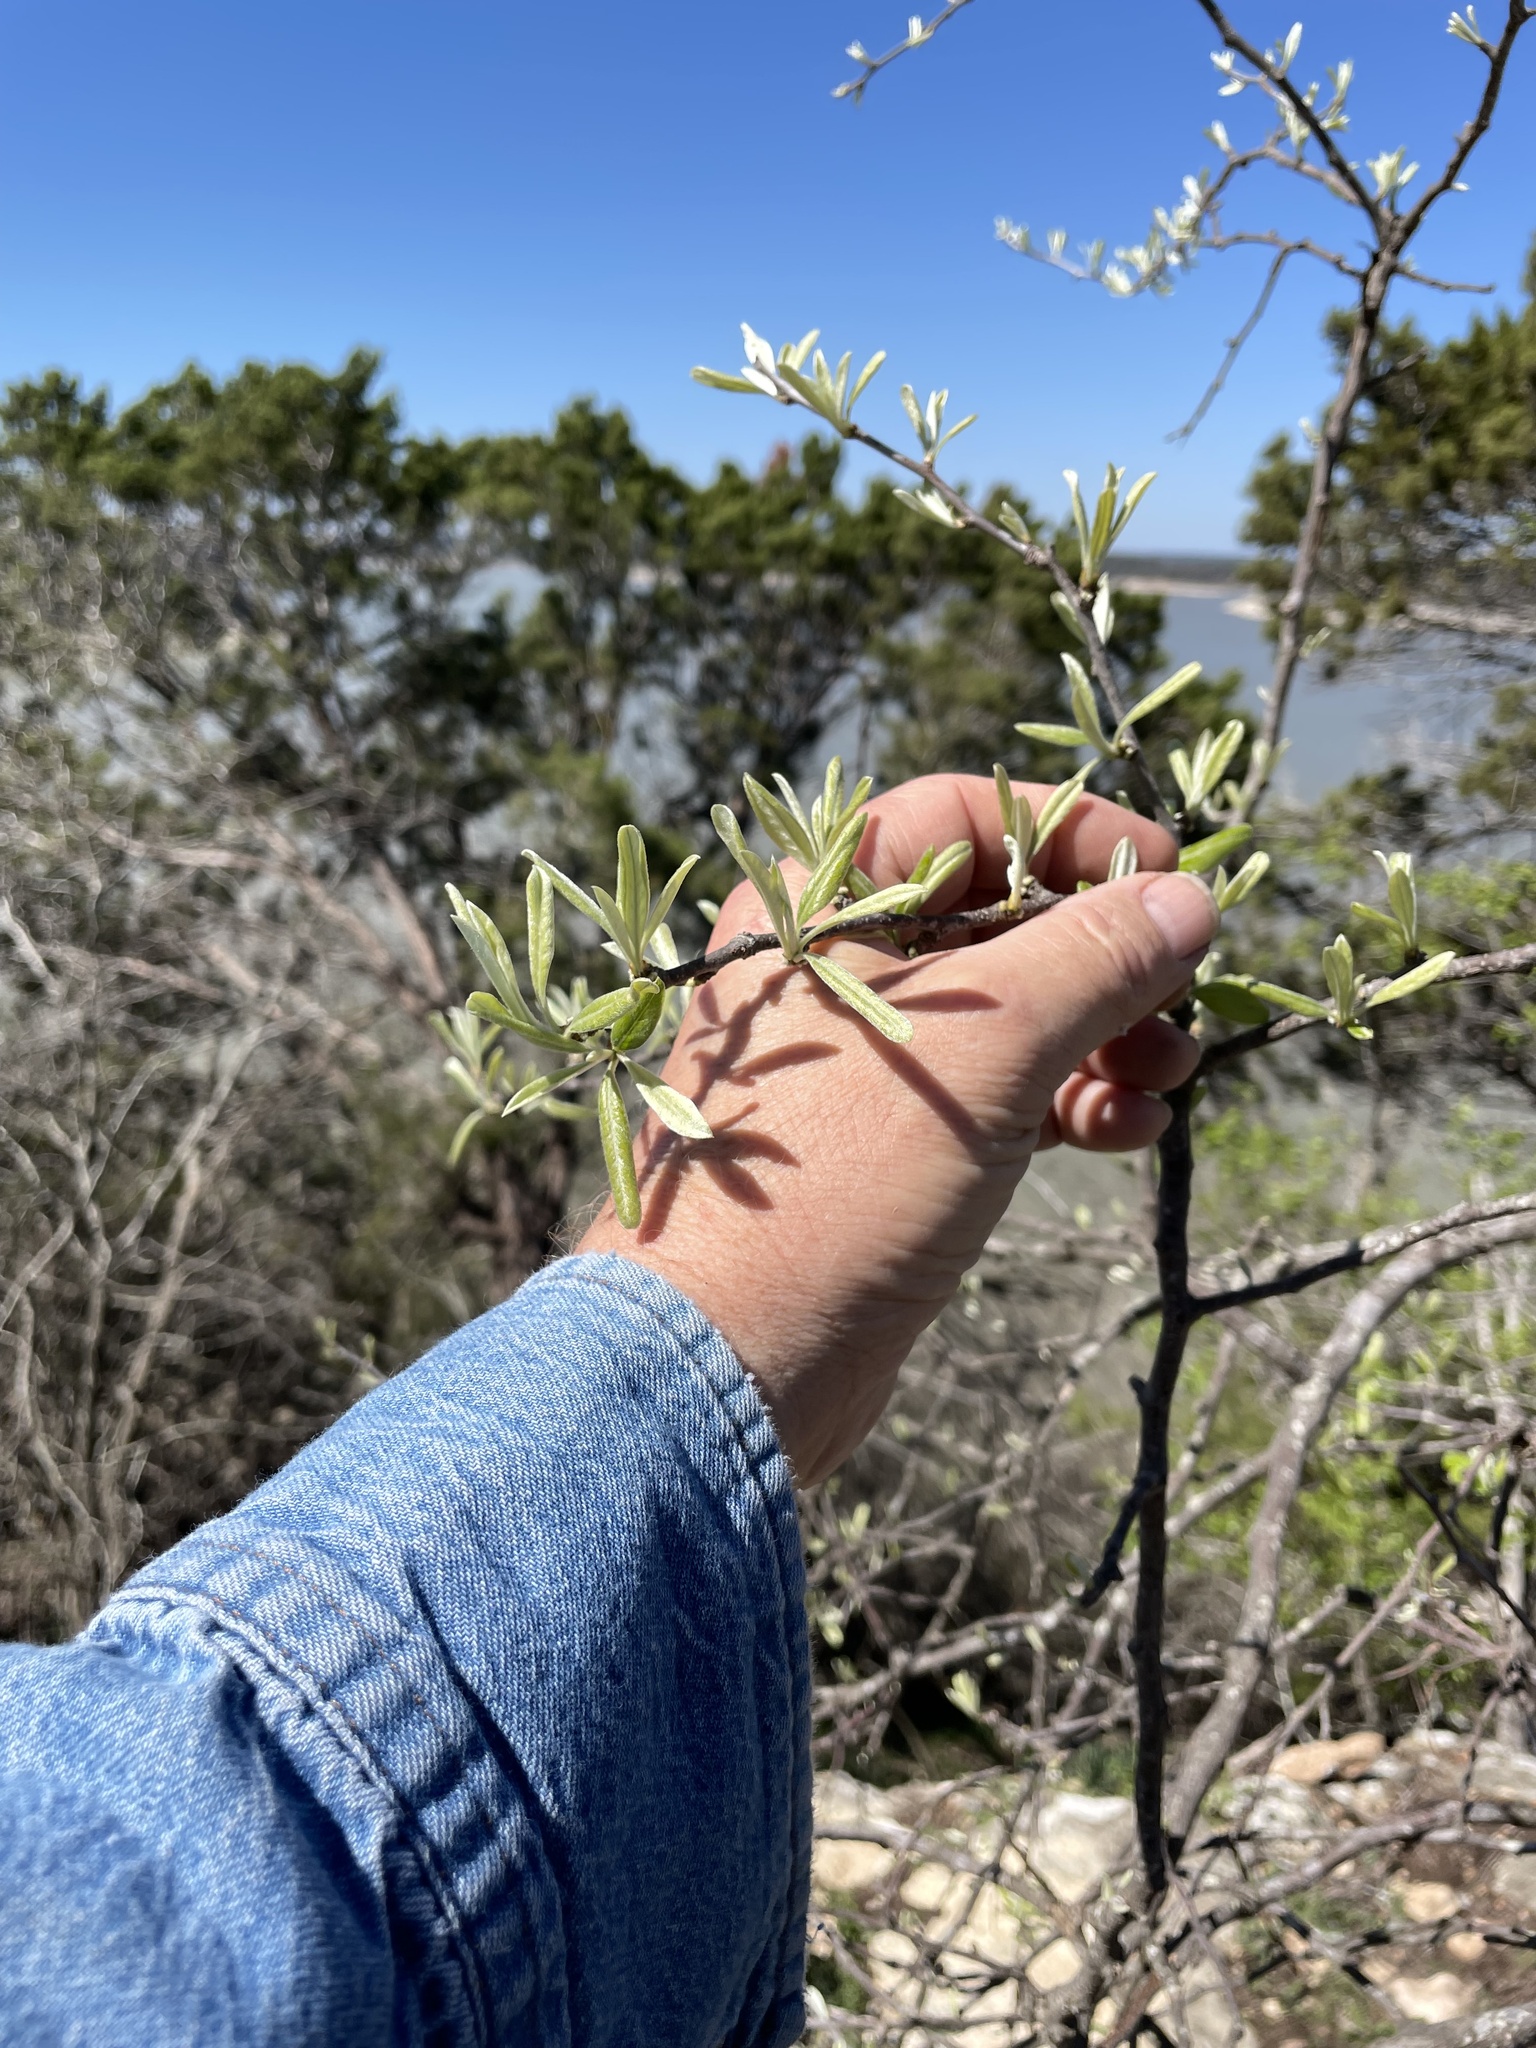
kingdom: Plantae
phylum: Tracheophyta
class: Magnoliopsida
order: Ericales
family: Sapotaceae
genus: Sideroxylon
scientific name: Sideroxylon lanuginosum
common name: Chittamwood
